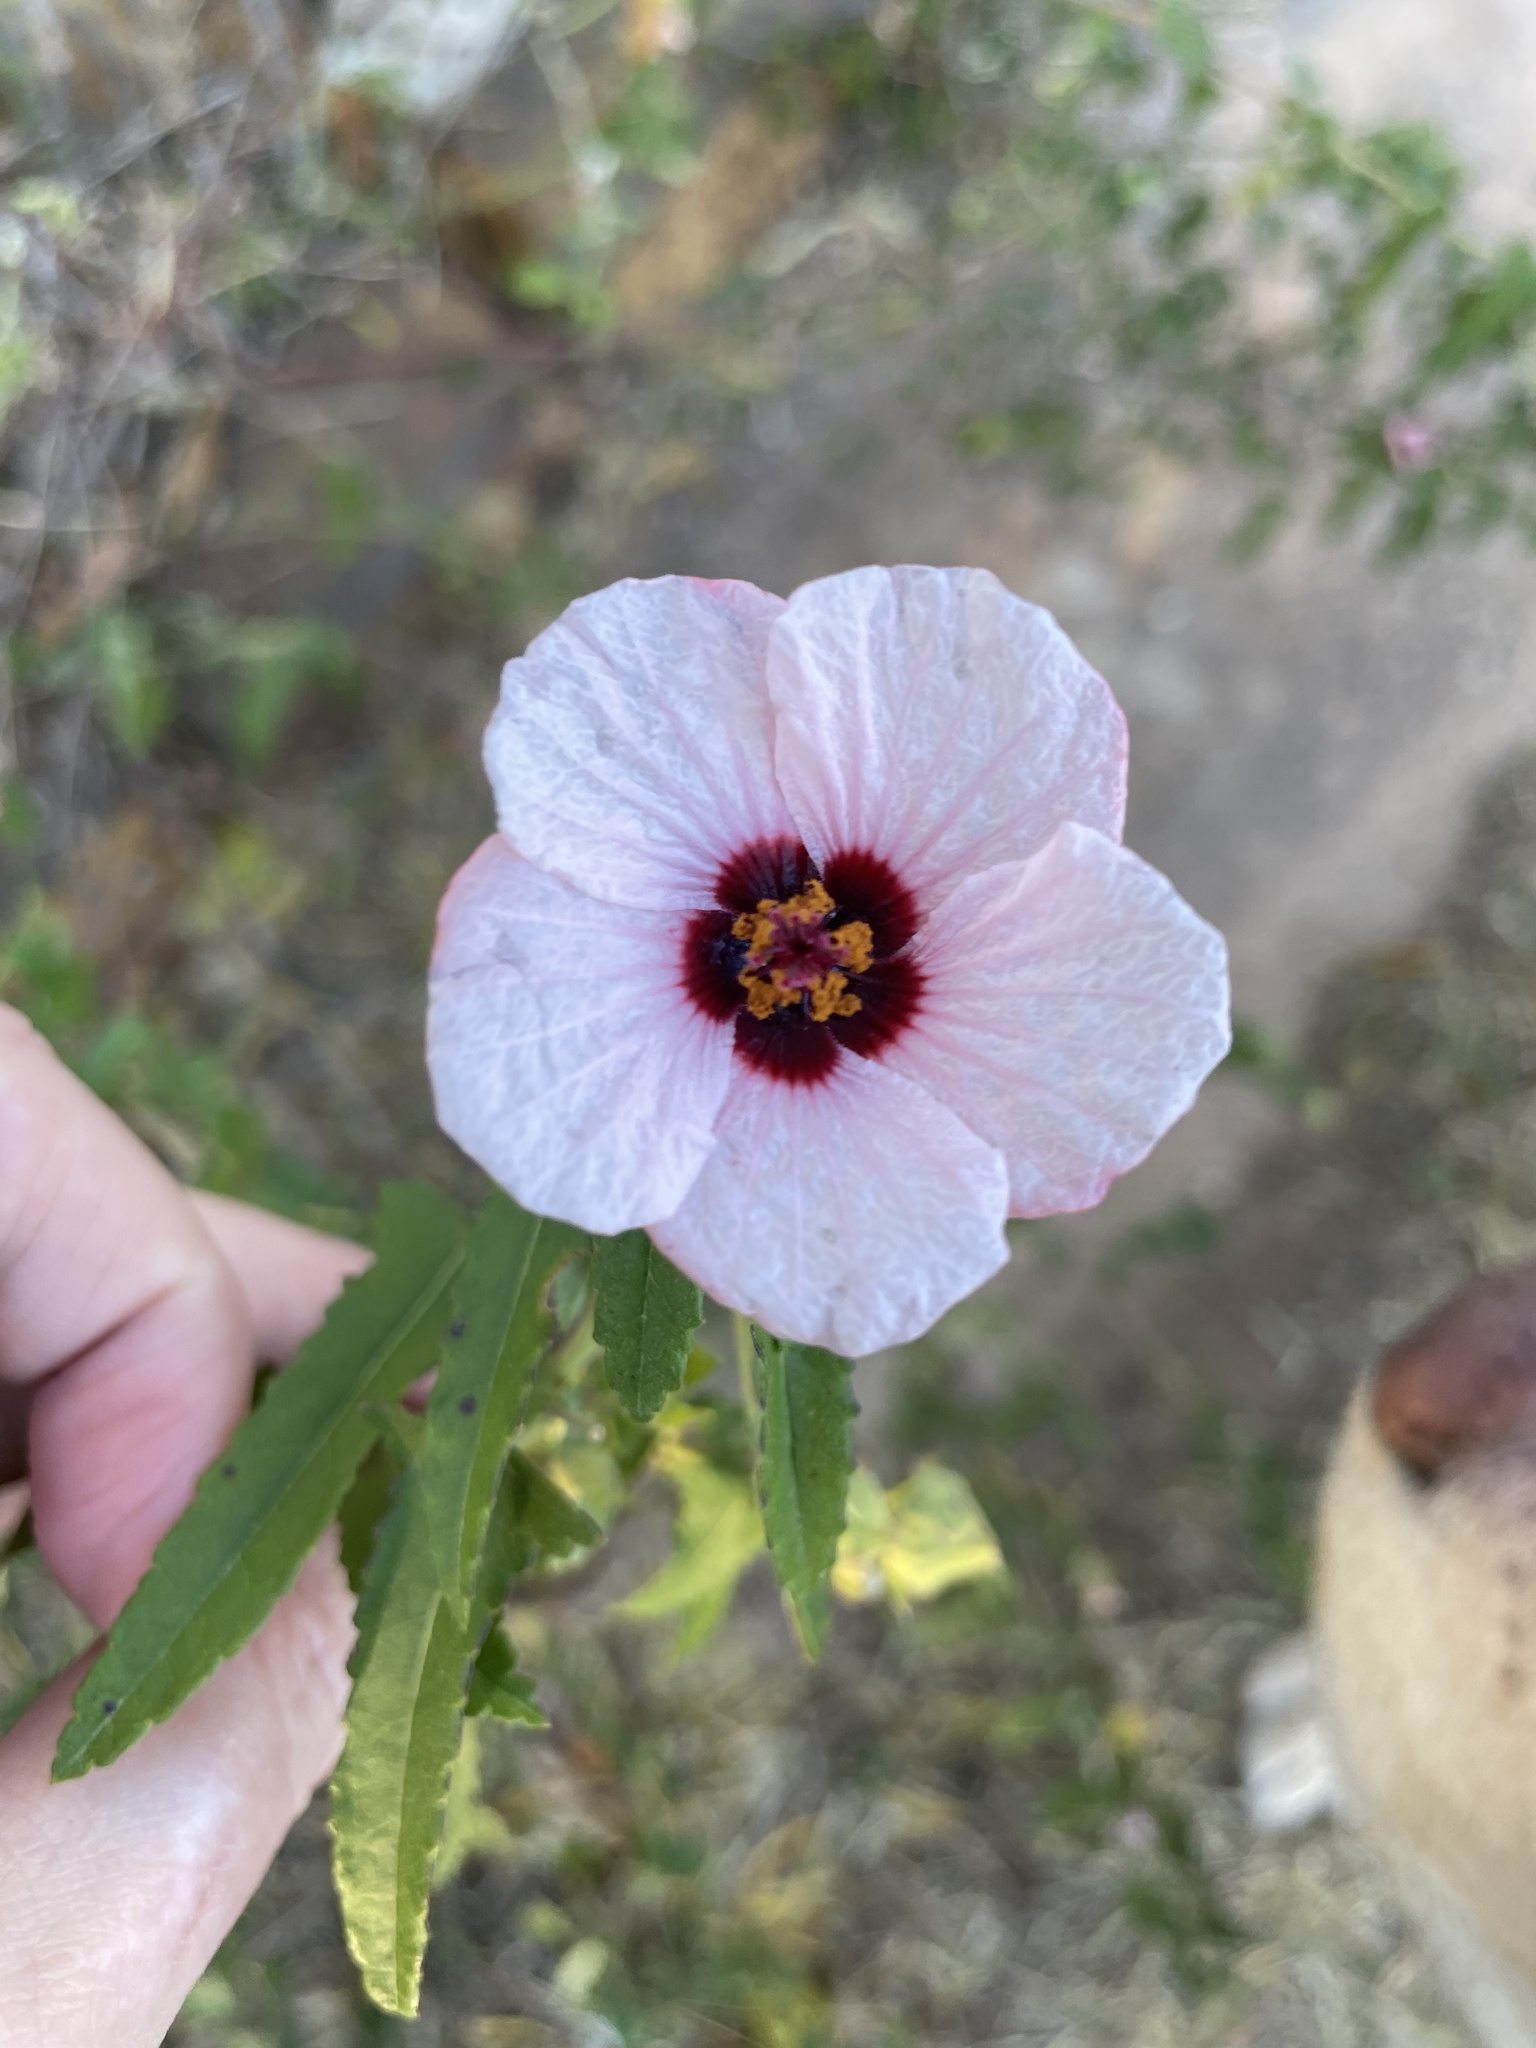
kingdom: Plantae
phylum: Tracheophyta
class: Magnoliopsida
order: Malvales
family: Malvaceae
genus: Pavonia
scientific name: Pavonia hastata
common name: Spearleaf swampmallow
